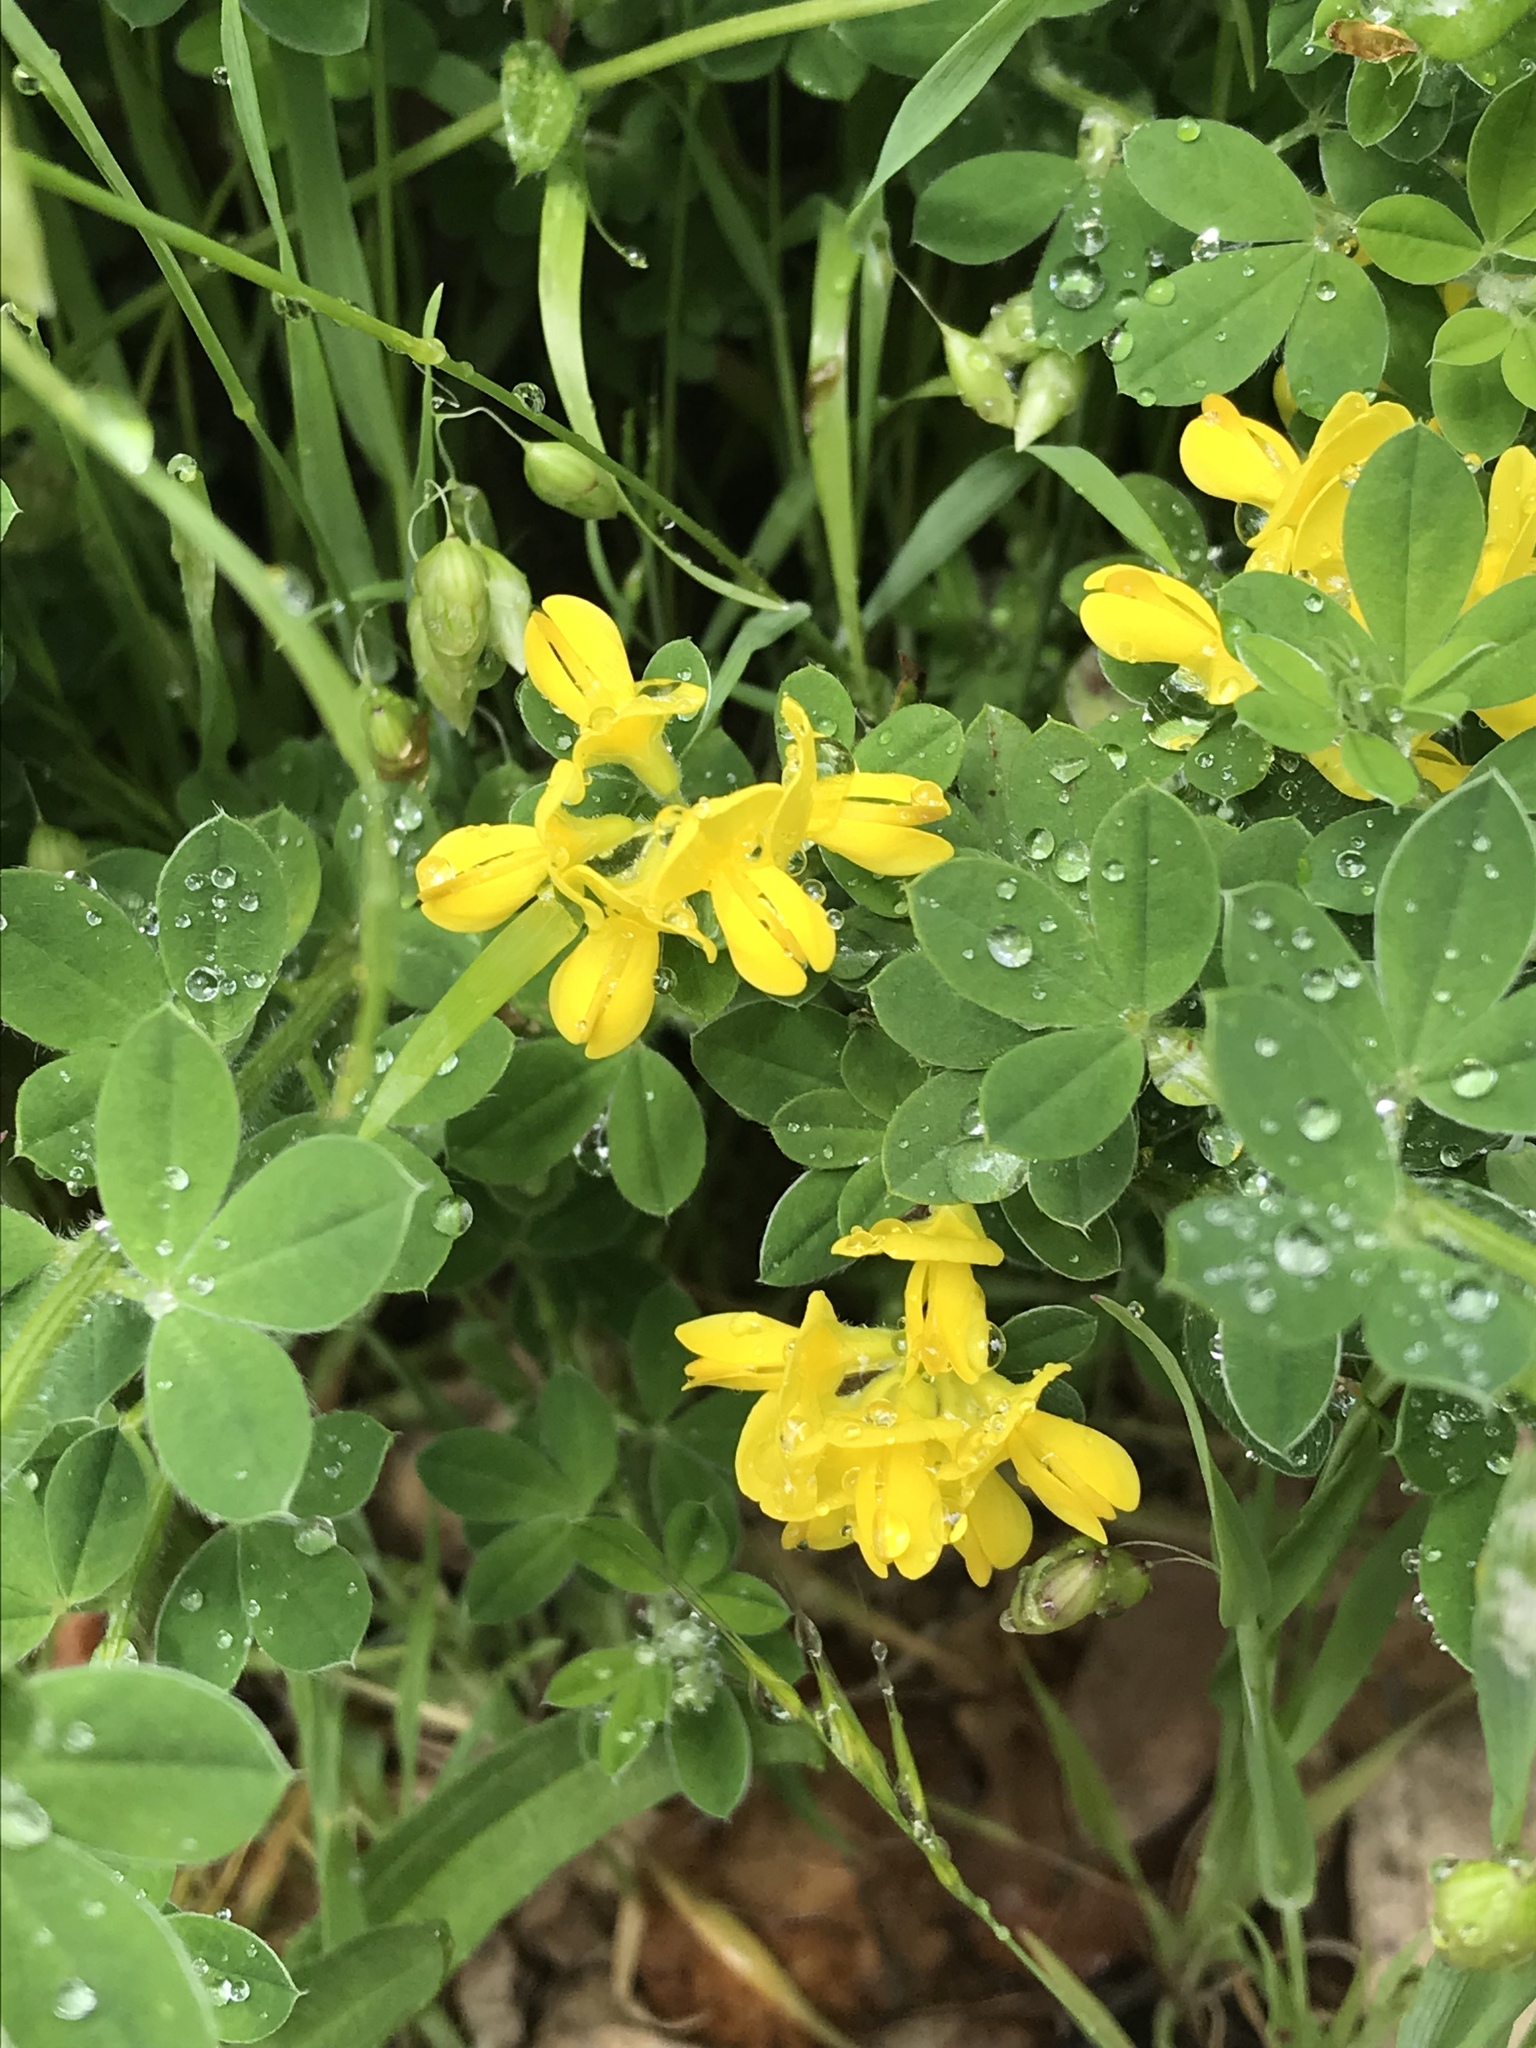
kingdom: Plantae
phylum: Tracheophyta
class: Magnoliopsida
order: Fabales
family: Fabaceae
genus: Genista
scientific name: Genista monspessulana
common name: Montpellier broom
